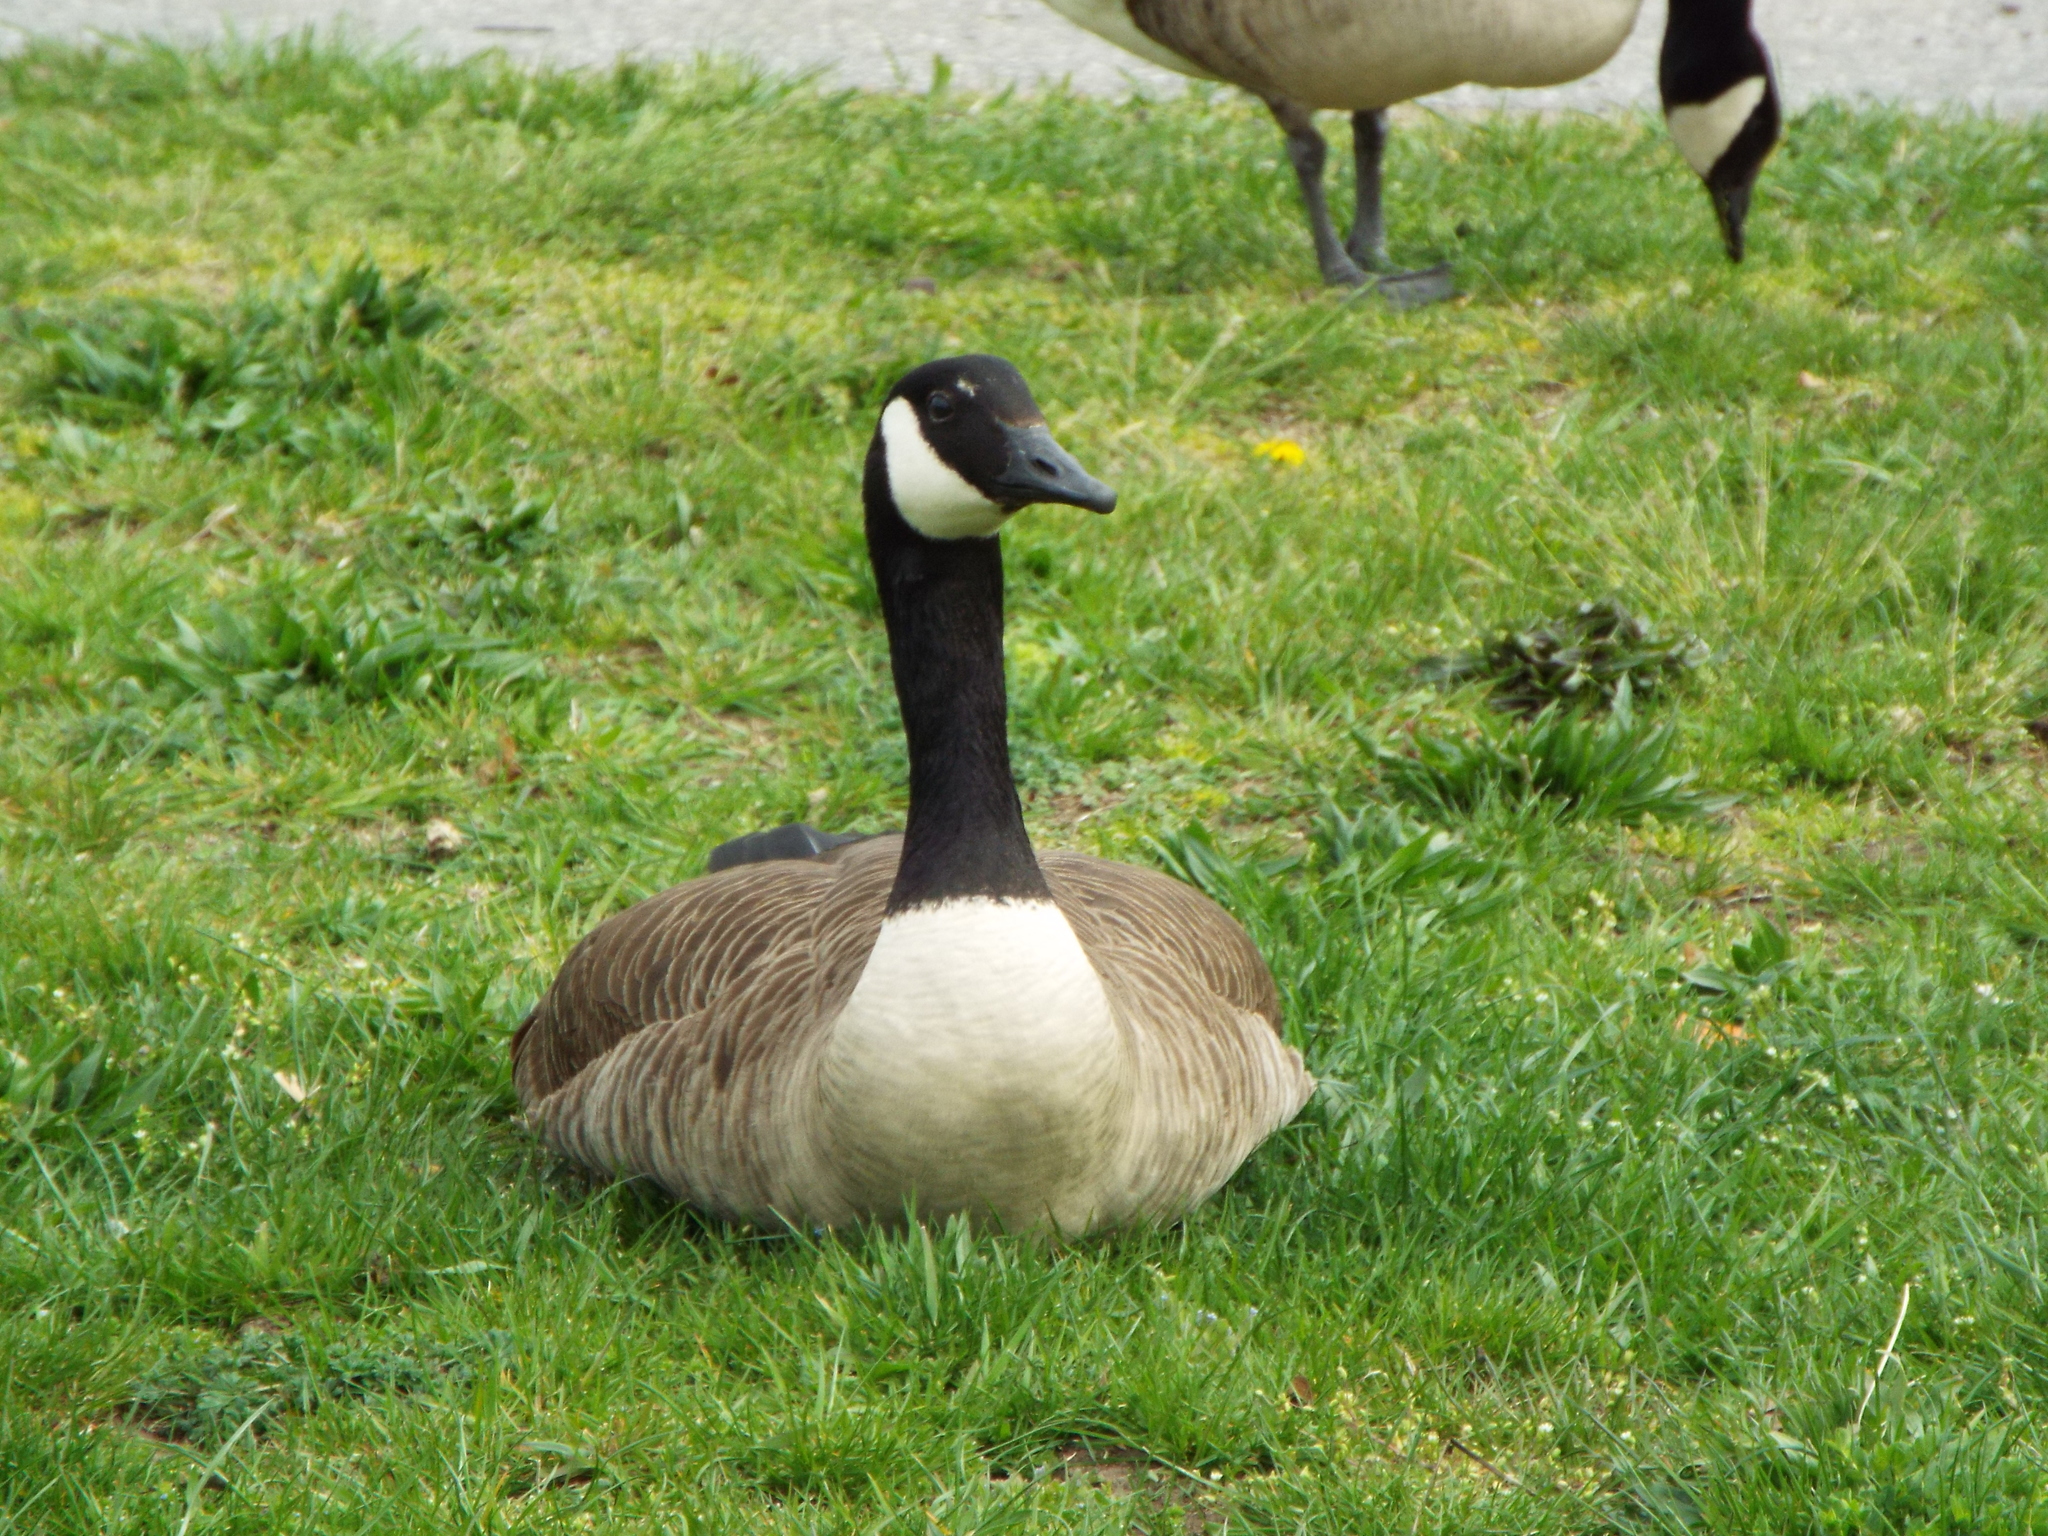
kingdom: Animalia
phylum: Chordata
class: Aves
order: Anseriformes
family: Anatidae
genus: Branta
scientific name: Branta canadensis
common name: Canada goose
